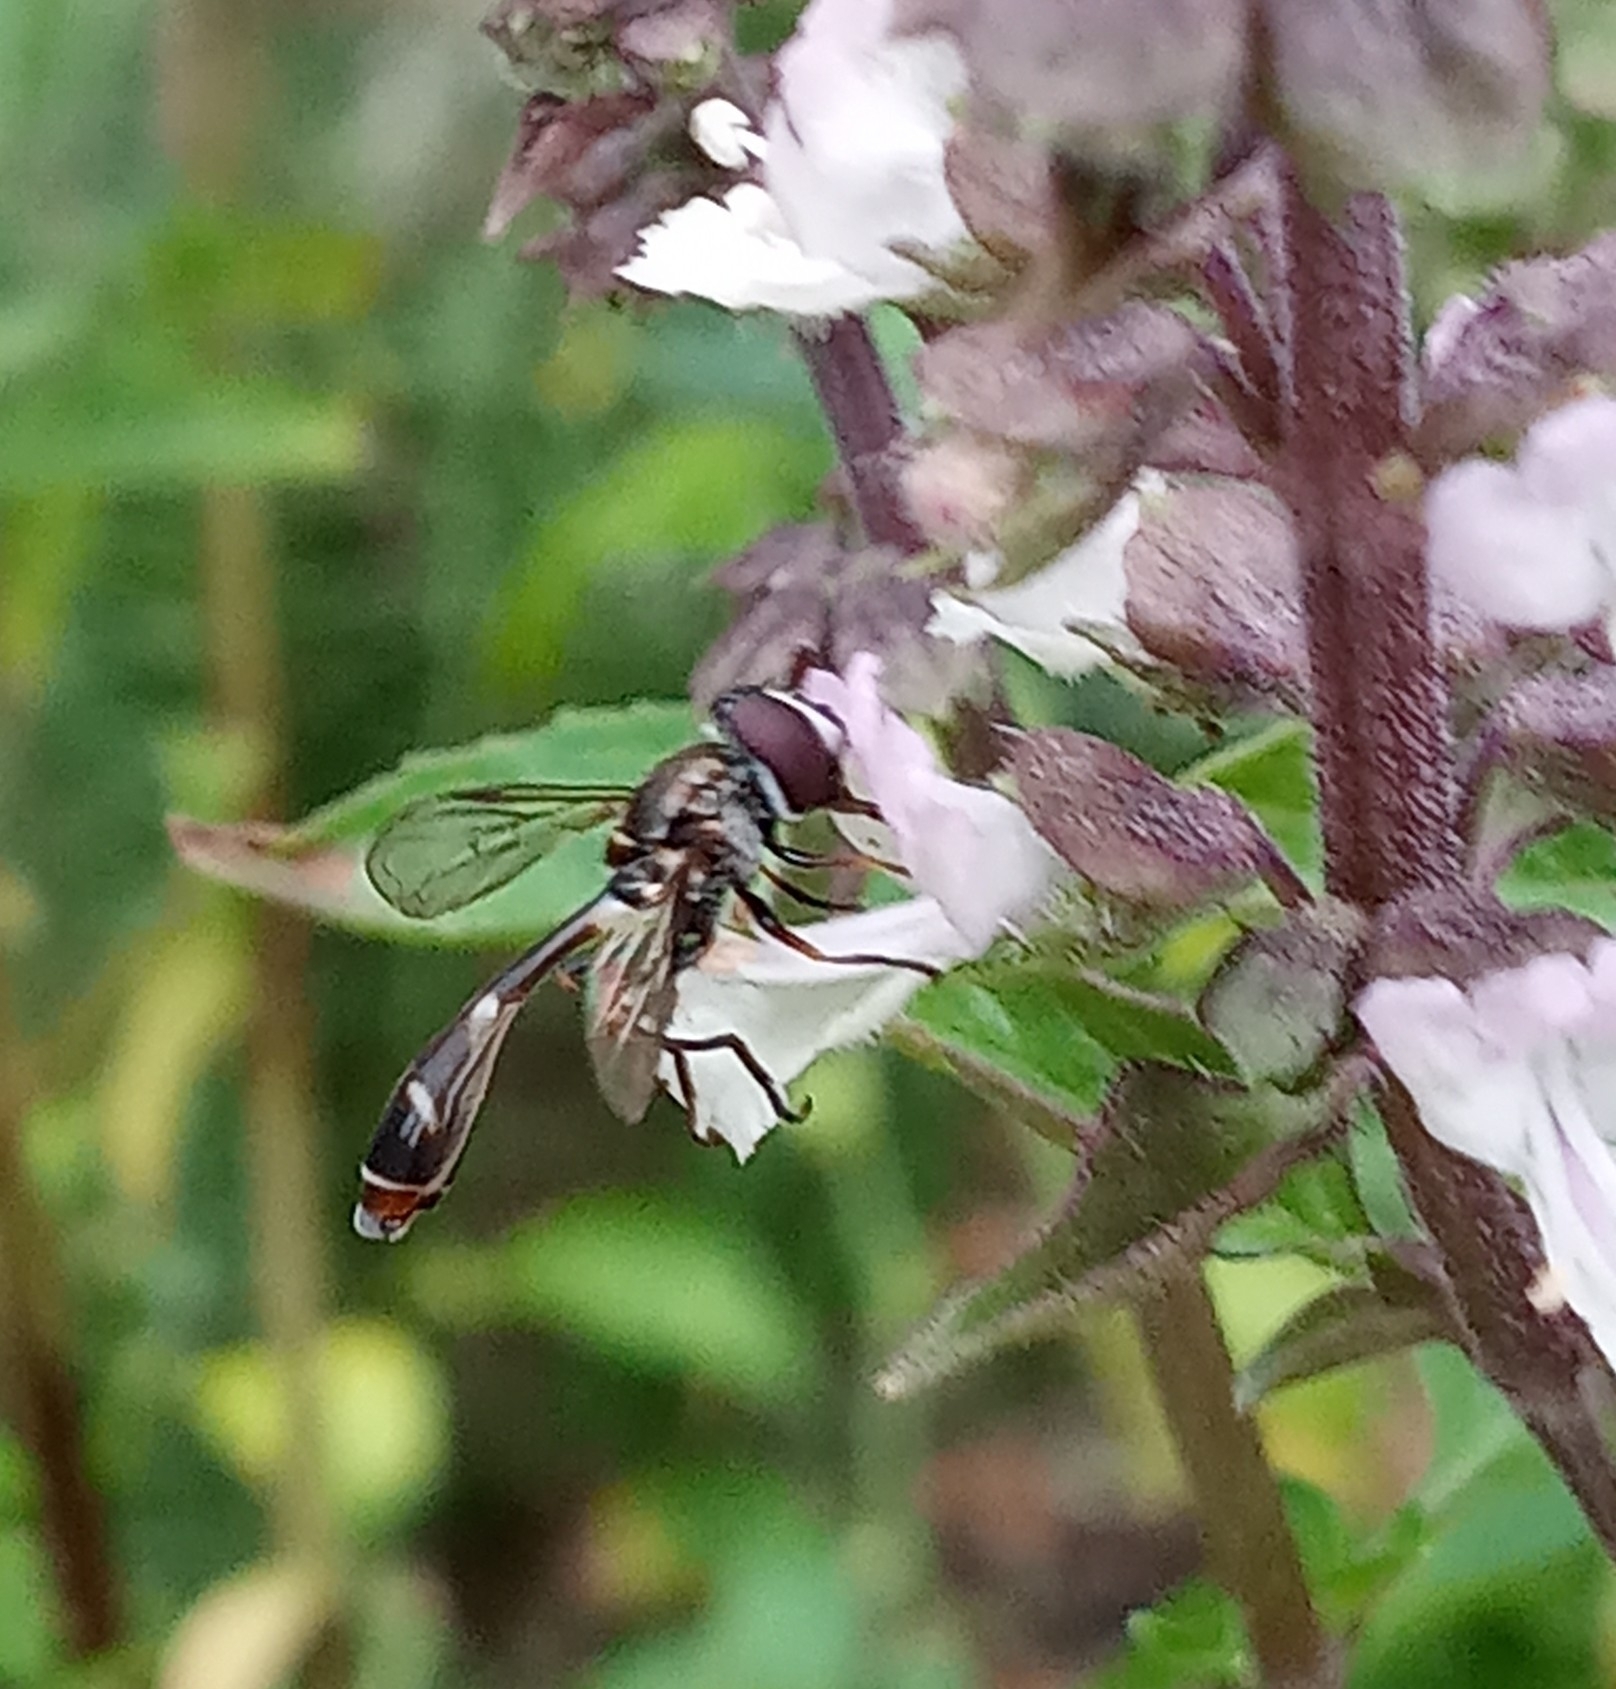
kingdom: Animalia
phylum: Arthropoda
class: Insecta
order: Diptera
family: Syrphidae
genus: Dioprosopa
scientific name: Dioprosopa clavatus
